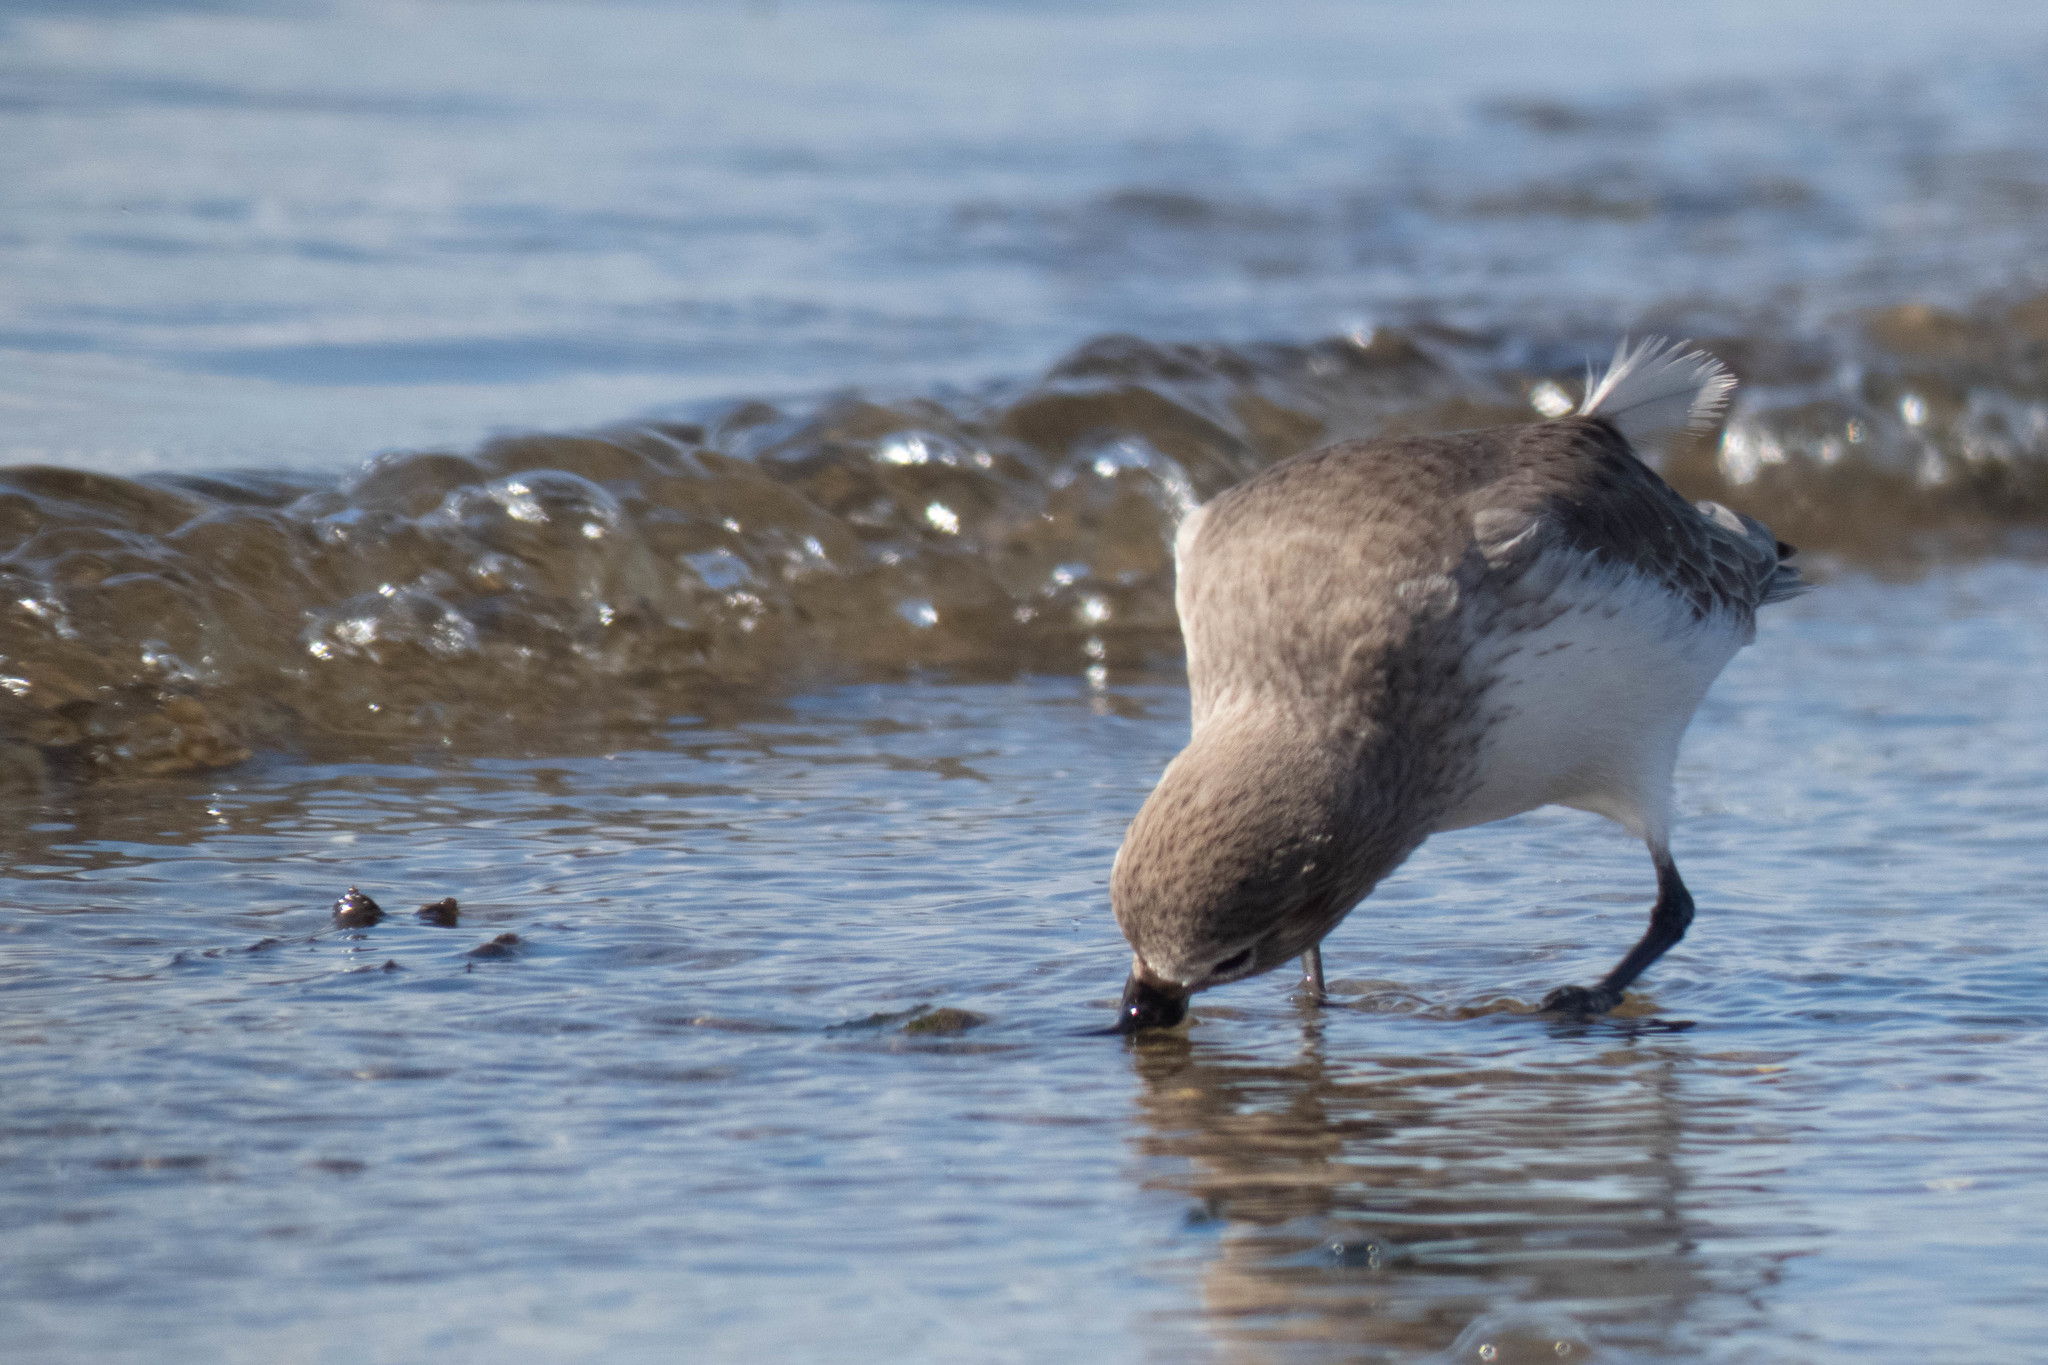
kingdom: Animalia
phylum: Chordata
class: Aves
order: Charadriiformes
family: Scolopacidae
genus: Calidris
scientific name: Calidris alpina
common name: Dunlin
